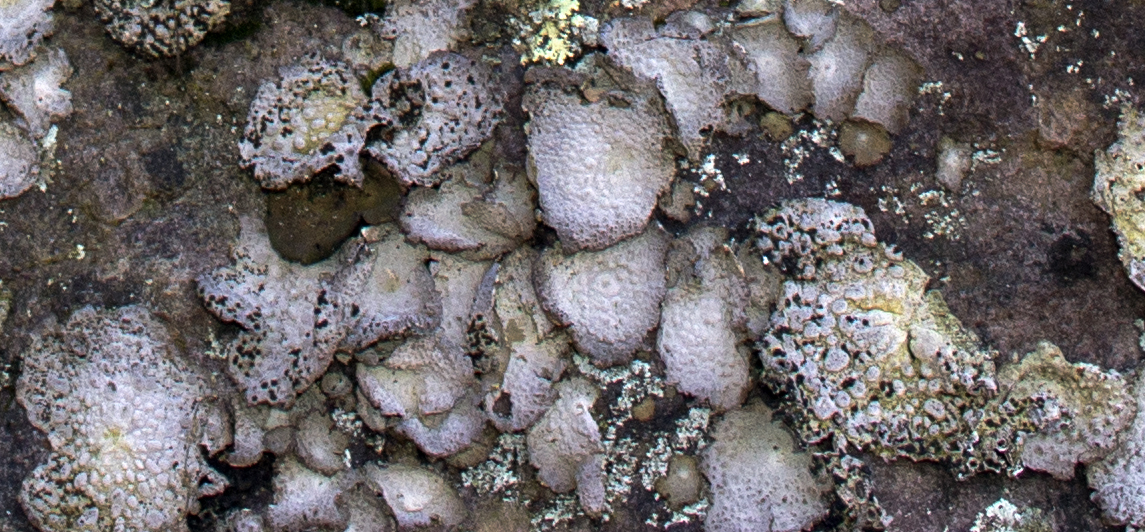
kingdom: Fungi
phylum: Ascomycota
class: Lecanoromycetes
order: Umbilicariales
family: Umbilicariaceae
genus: Lasallia
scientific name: Lasallia papulosa
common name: Common toadskin lichen
